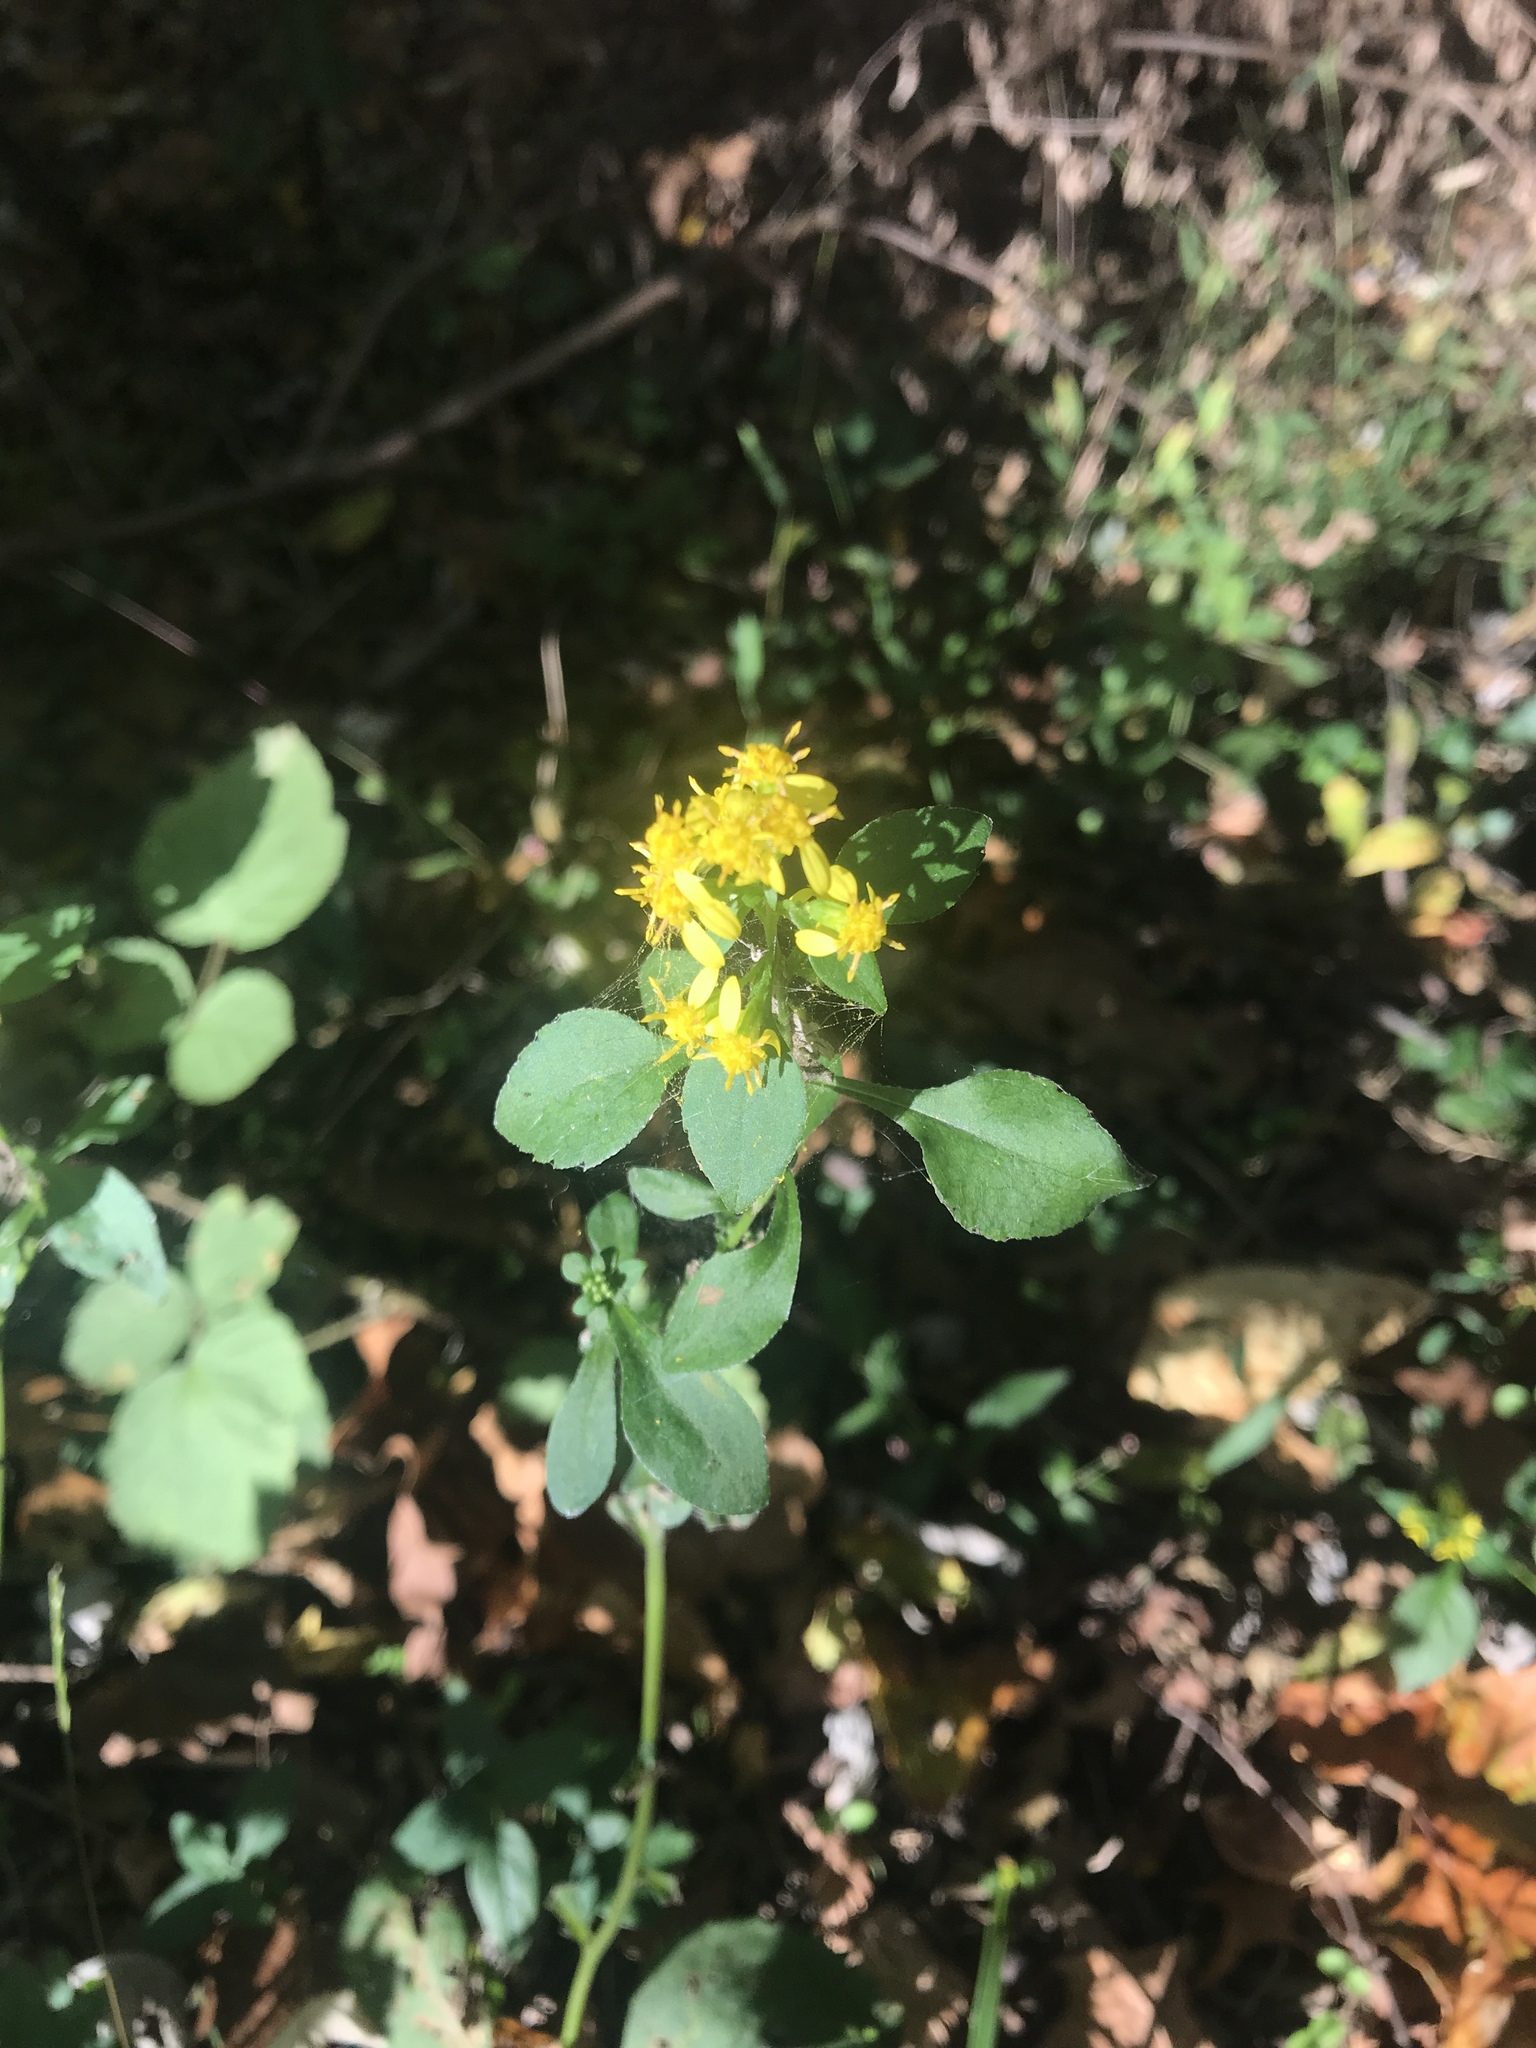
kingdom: Plantae
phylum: Tracheophyta
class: Magnoliopsida
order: Asterales
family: Asteraceae
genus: Solidago
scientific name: Solidago hispida
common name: Hairy goldenrod
